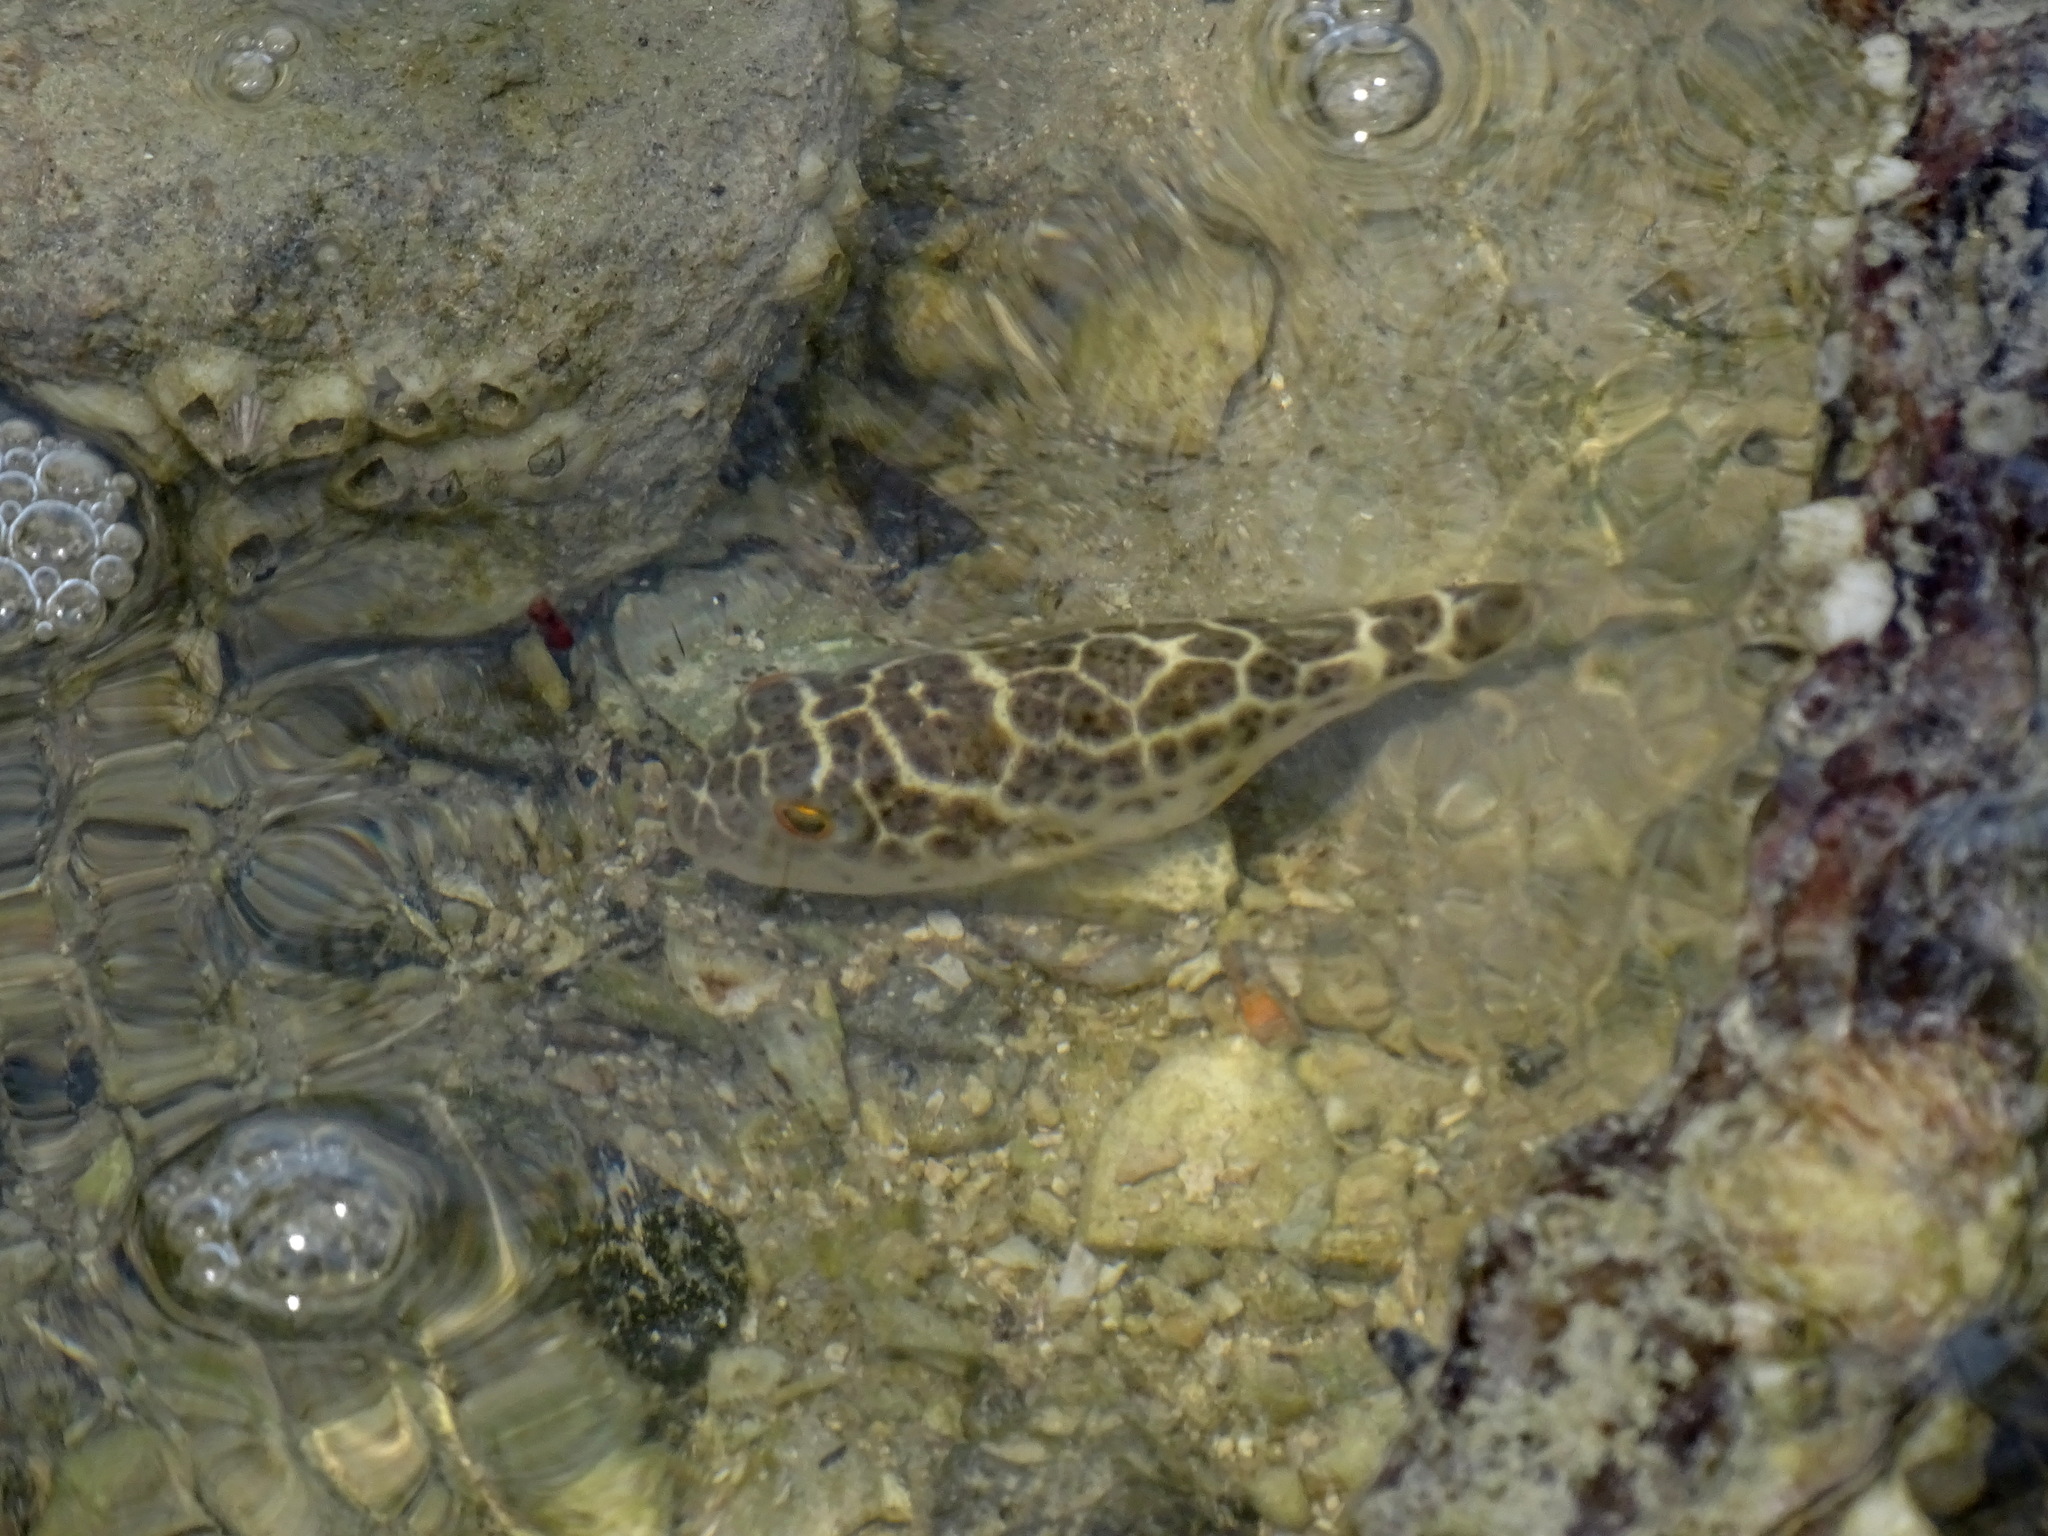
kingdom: Animalia
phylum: Chordata
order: Tetraodontiformes
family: Tetraodontidae
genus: Sphoeroides
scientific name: Sphoeroides testudineus
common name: Checkered puffer
